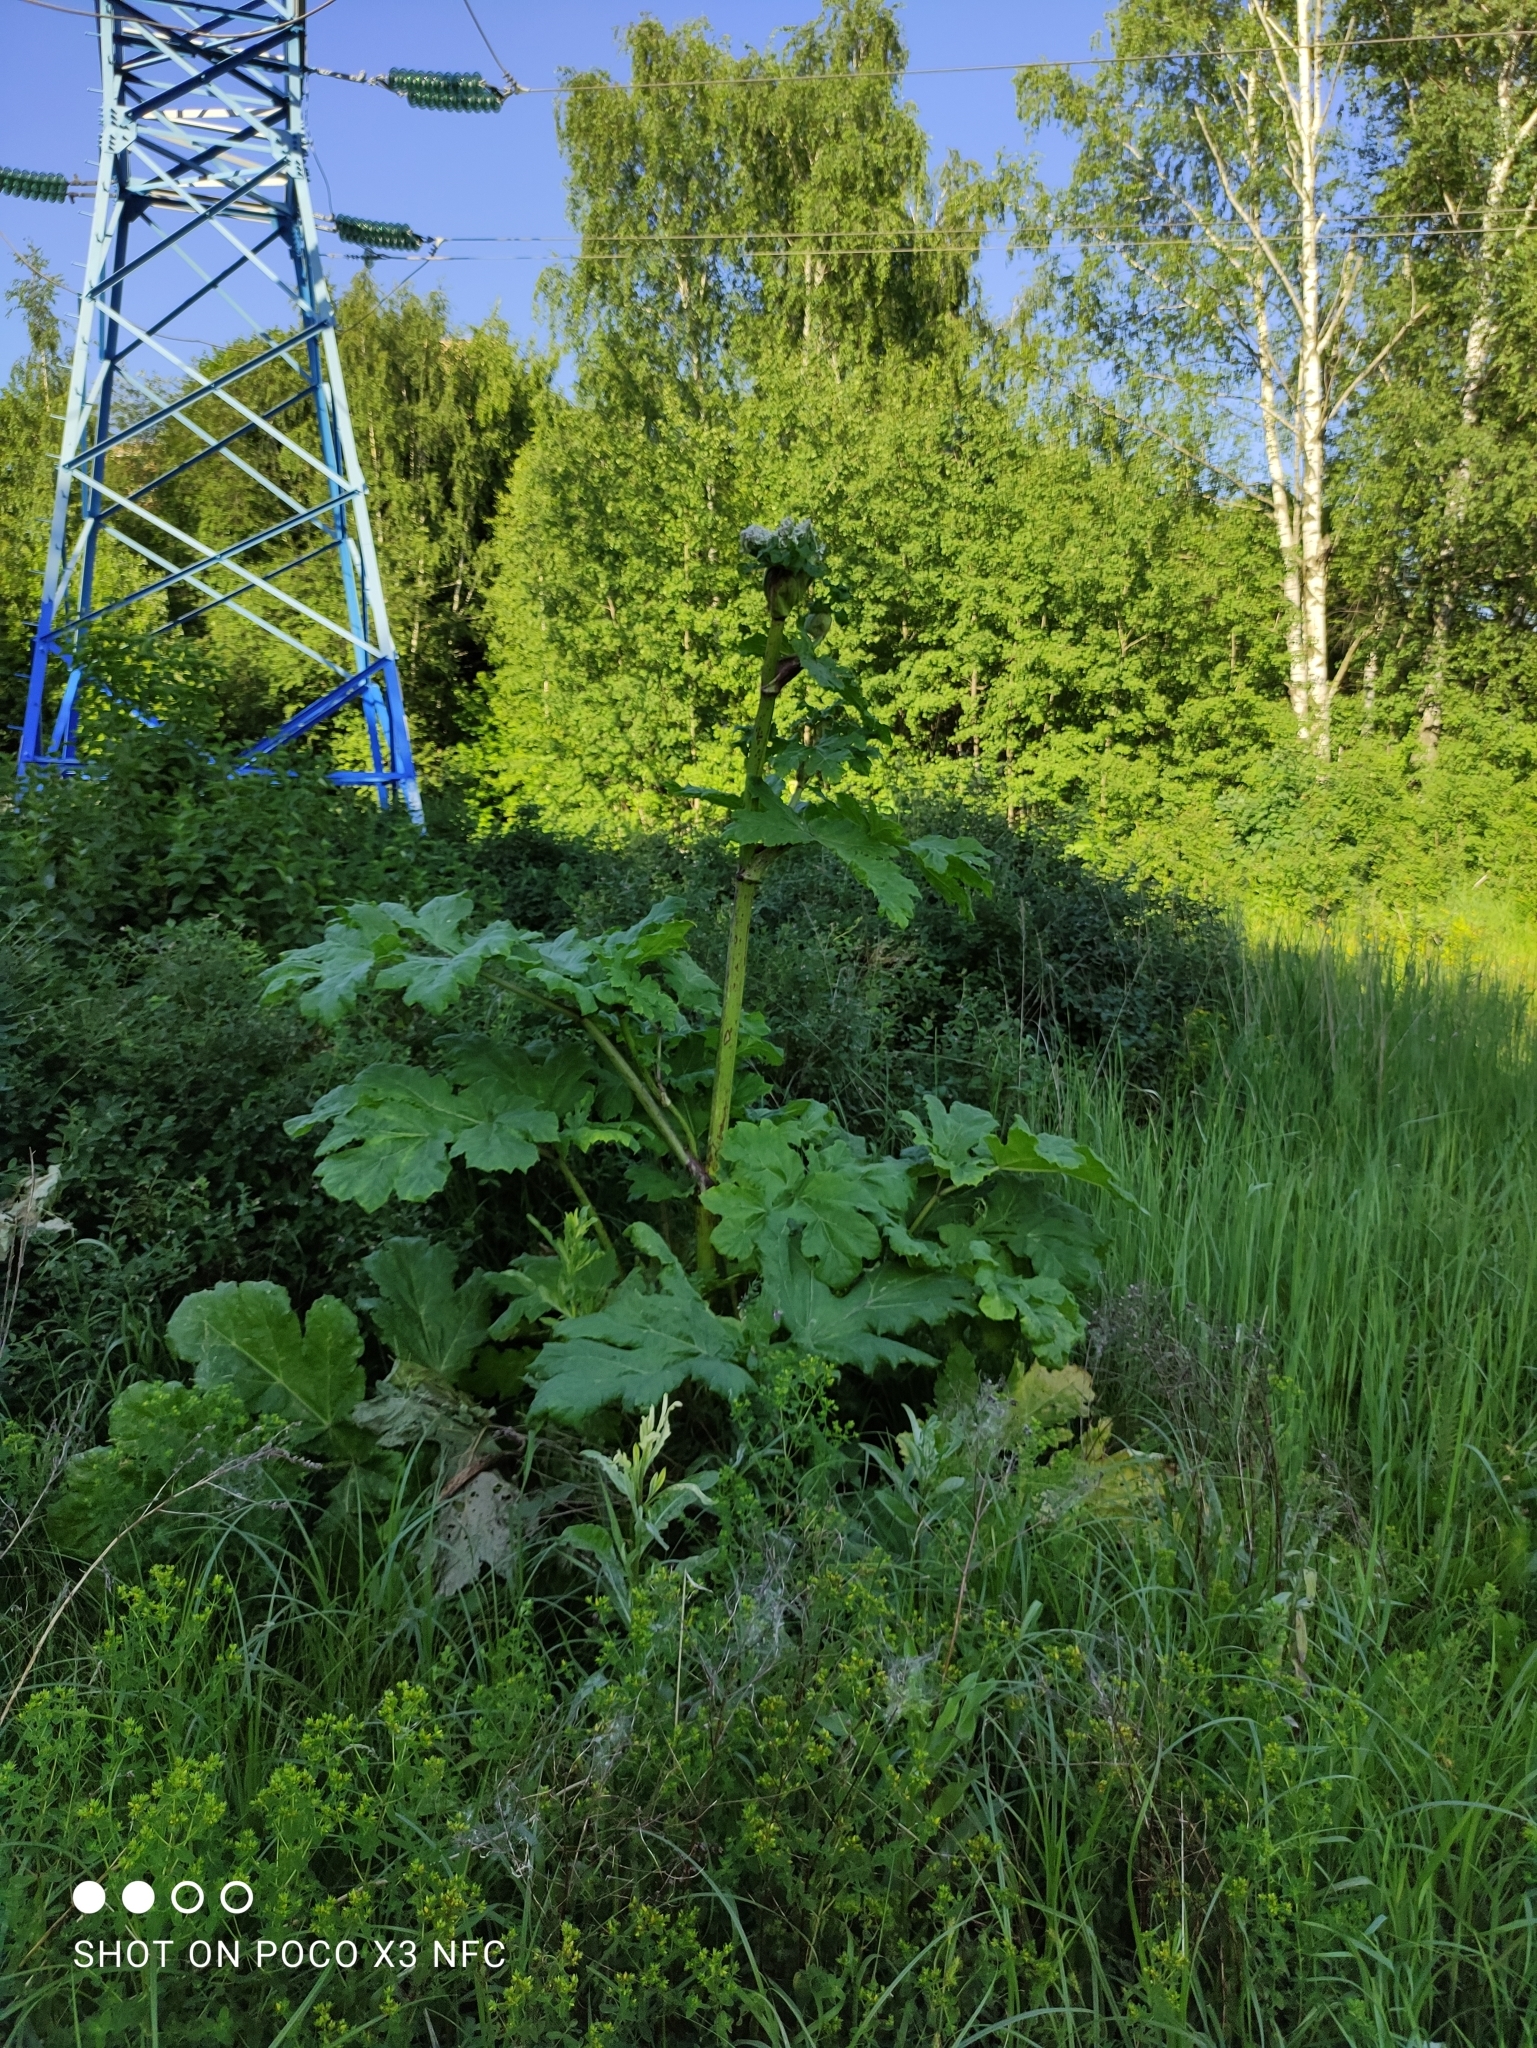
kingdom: Plantae
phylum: Tracheophyta
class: Magnoliopsida
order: Apiales
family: Apiaceae
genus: Heracleum
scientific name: Heracleum sosnowskyi
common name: Sosnowsky's hogweed
